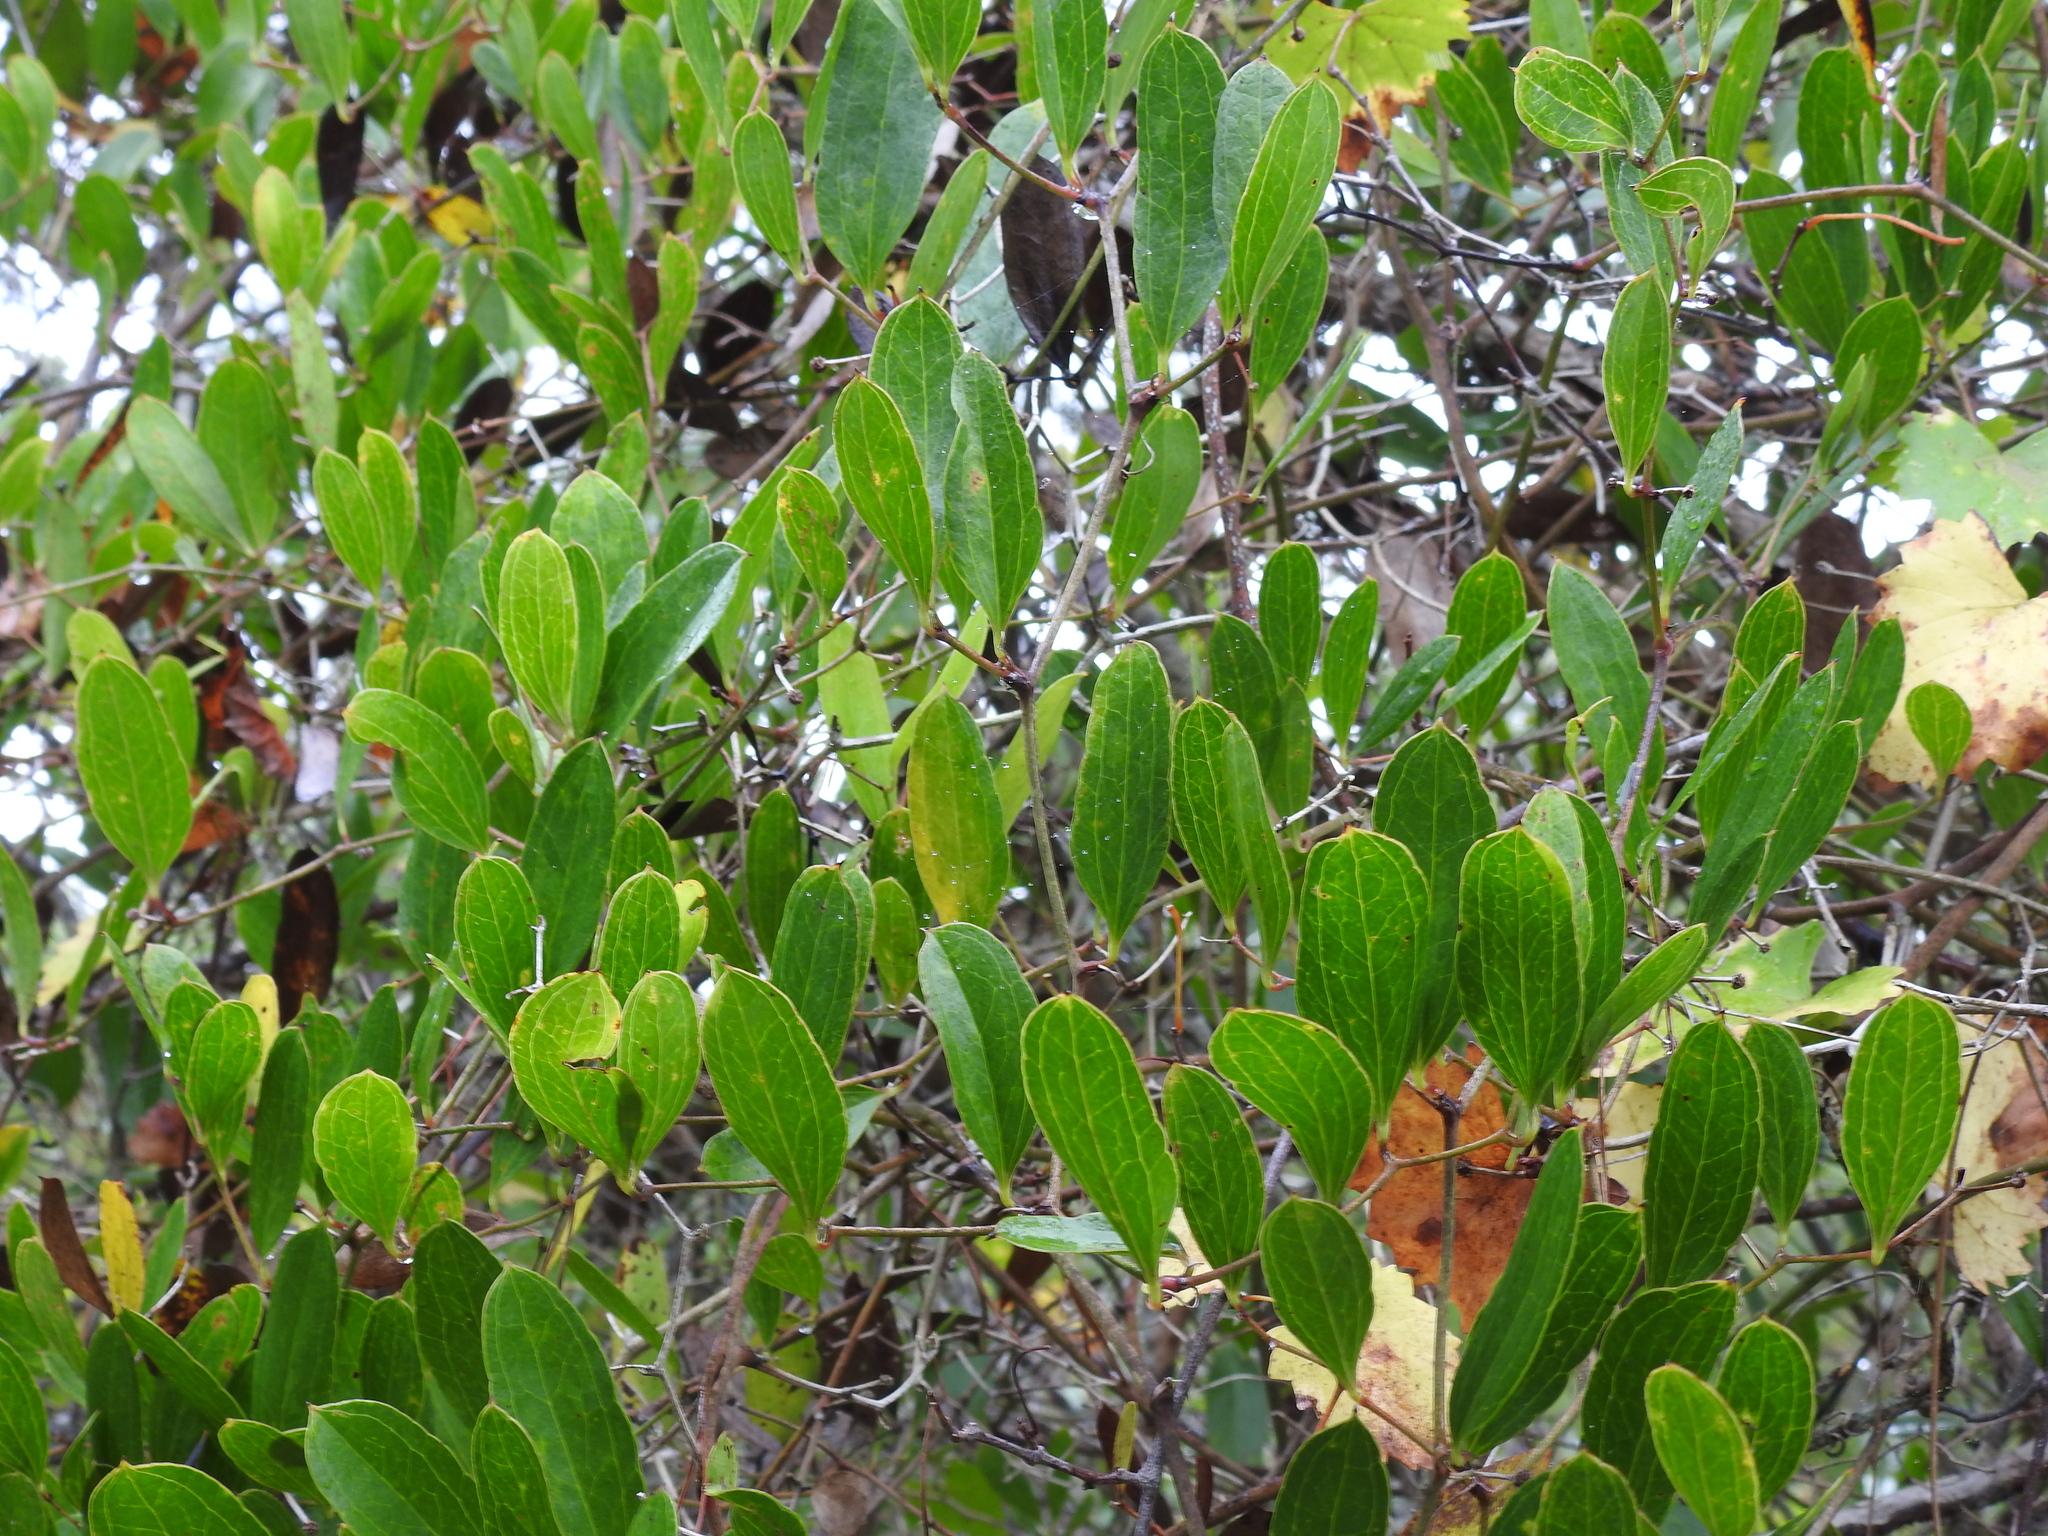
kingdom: Plantae
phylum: Tracheophyta
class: Liliopsida
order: Liliales
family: Smilacaceae
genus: Smilax
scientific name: Smilax auriculata
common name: Wild bamboo
